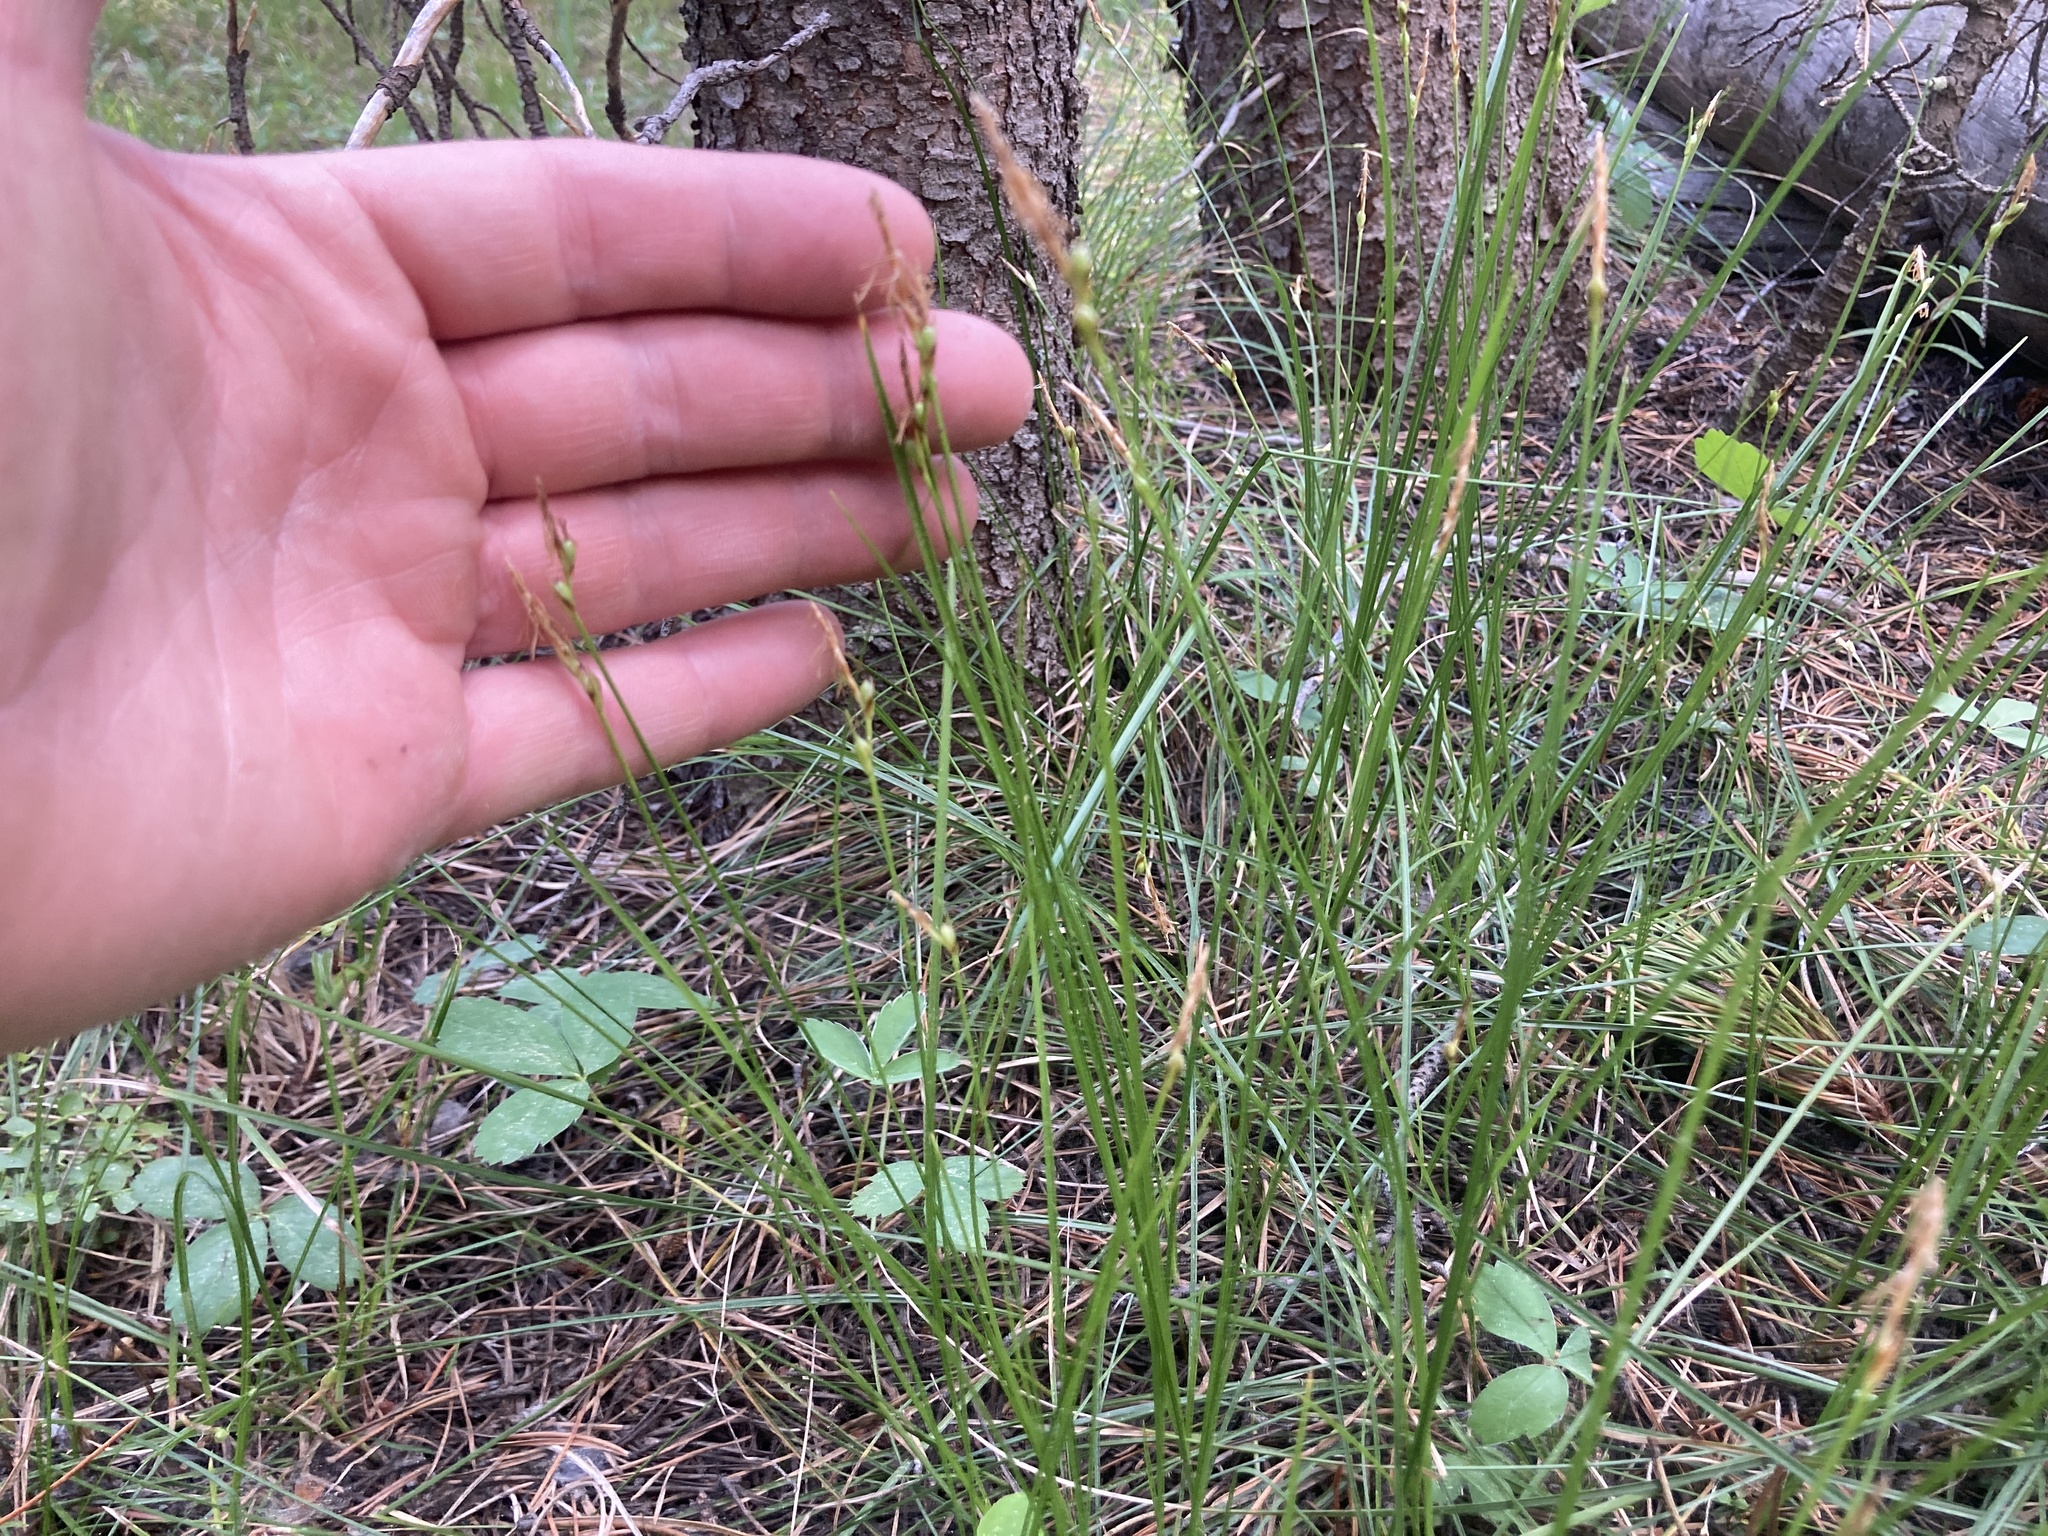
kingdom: Plantae
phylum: Tracheophyta
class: Liliopsida
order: Poales
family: Cyperaceae
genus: Carex
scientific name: Carex geyeri
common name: Elk sedge
